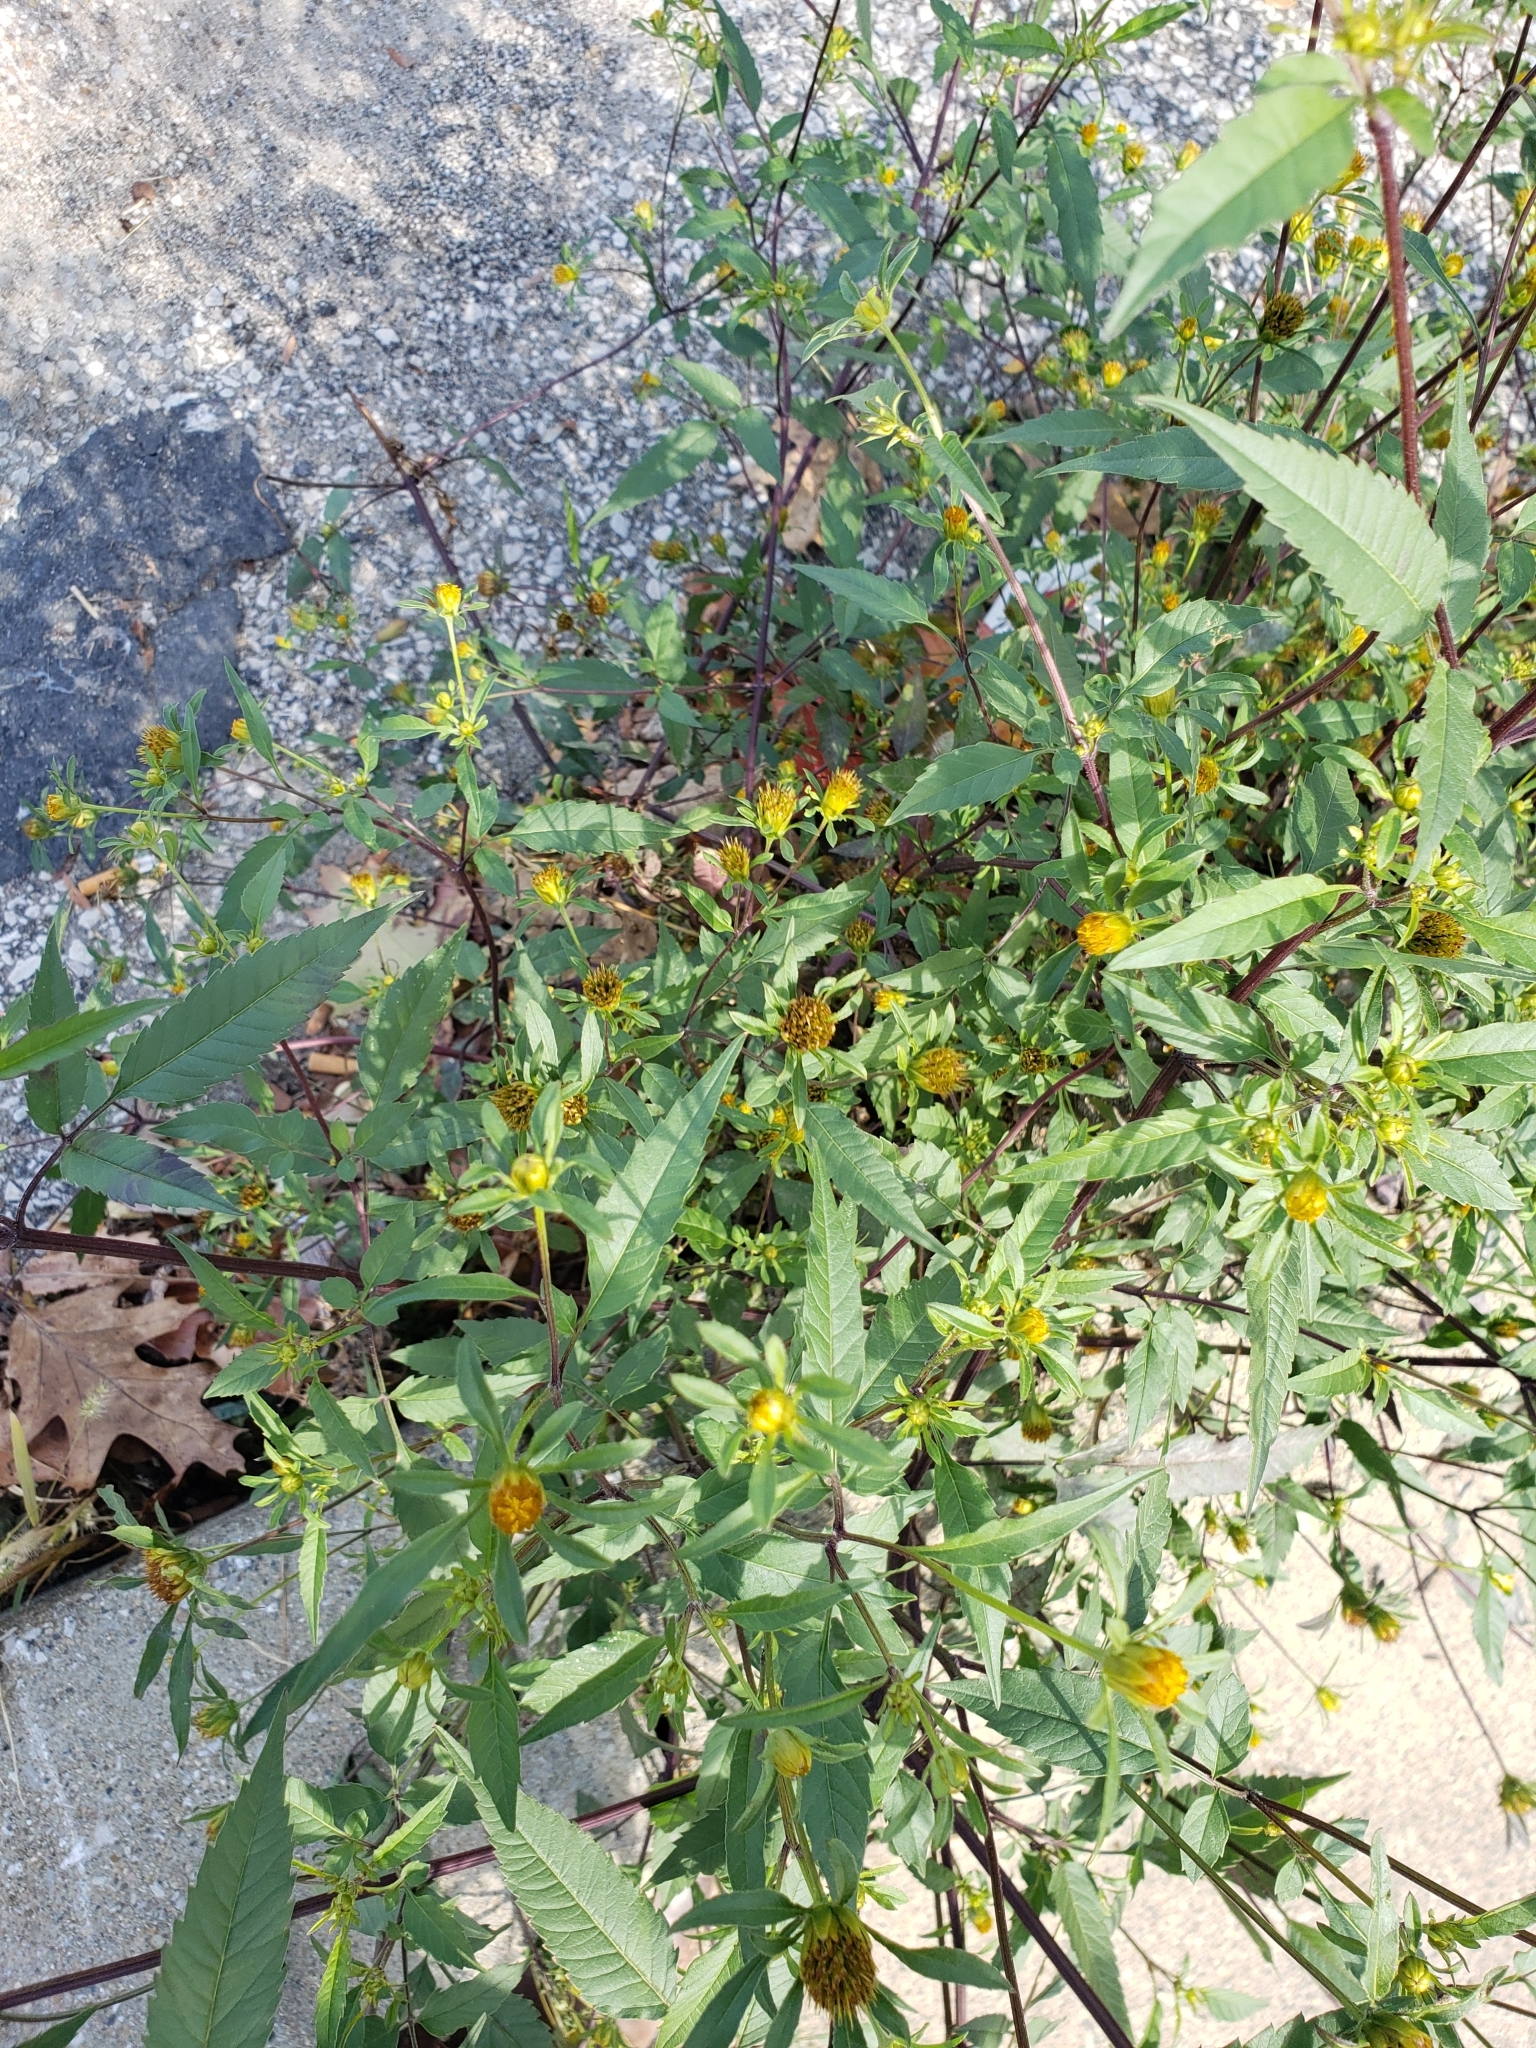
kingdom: Plantae
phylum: Tracheophyta
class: Magnoliopsida
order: Asterales
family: Asteraceae
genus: Bidens
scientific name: Bidens frondosa
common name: Beggarticks
